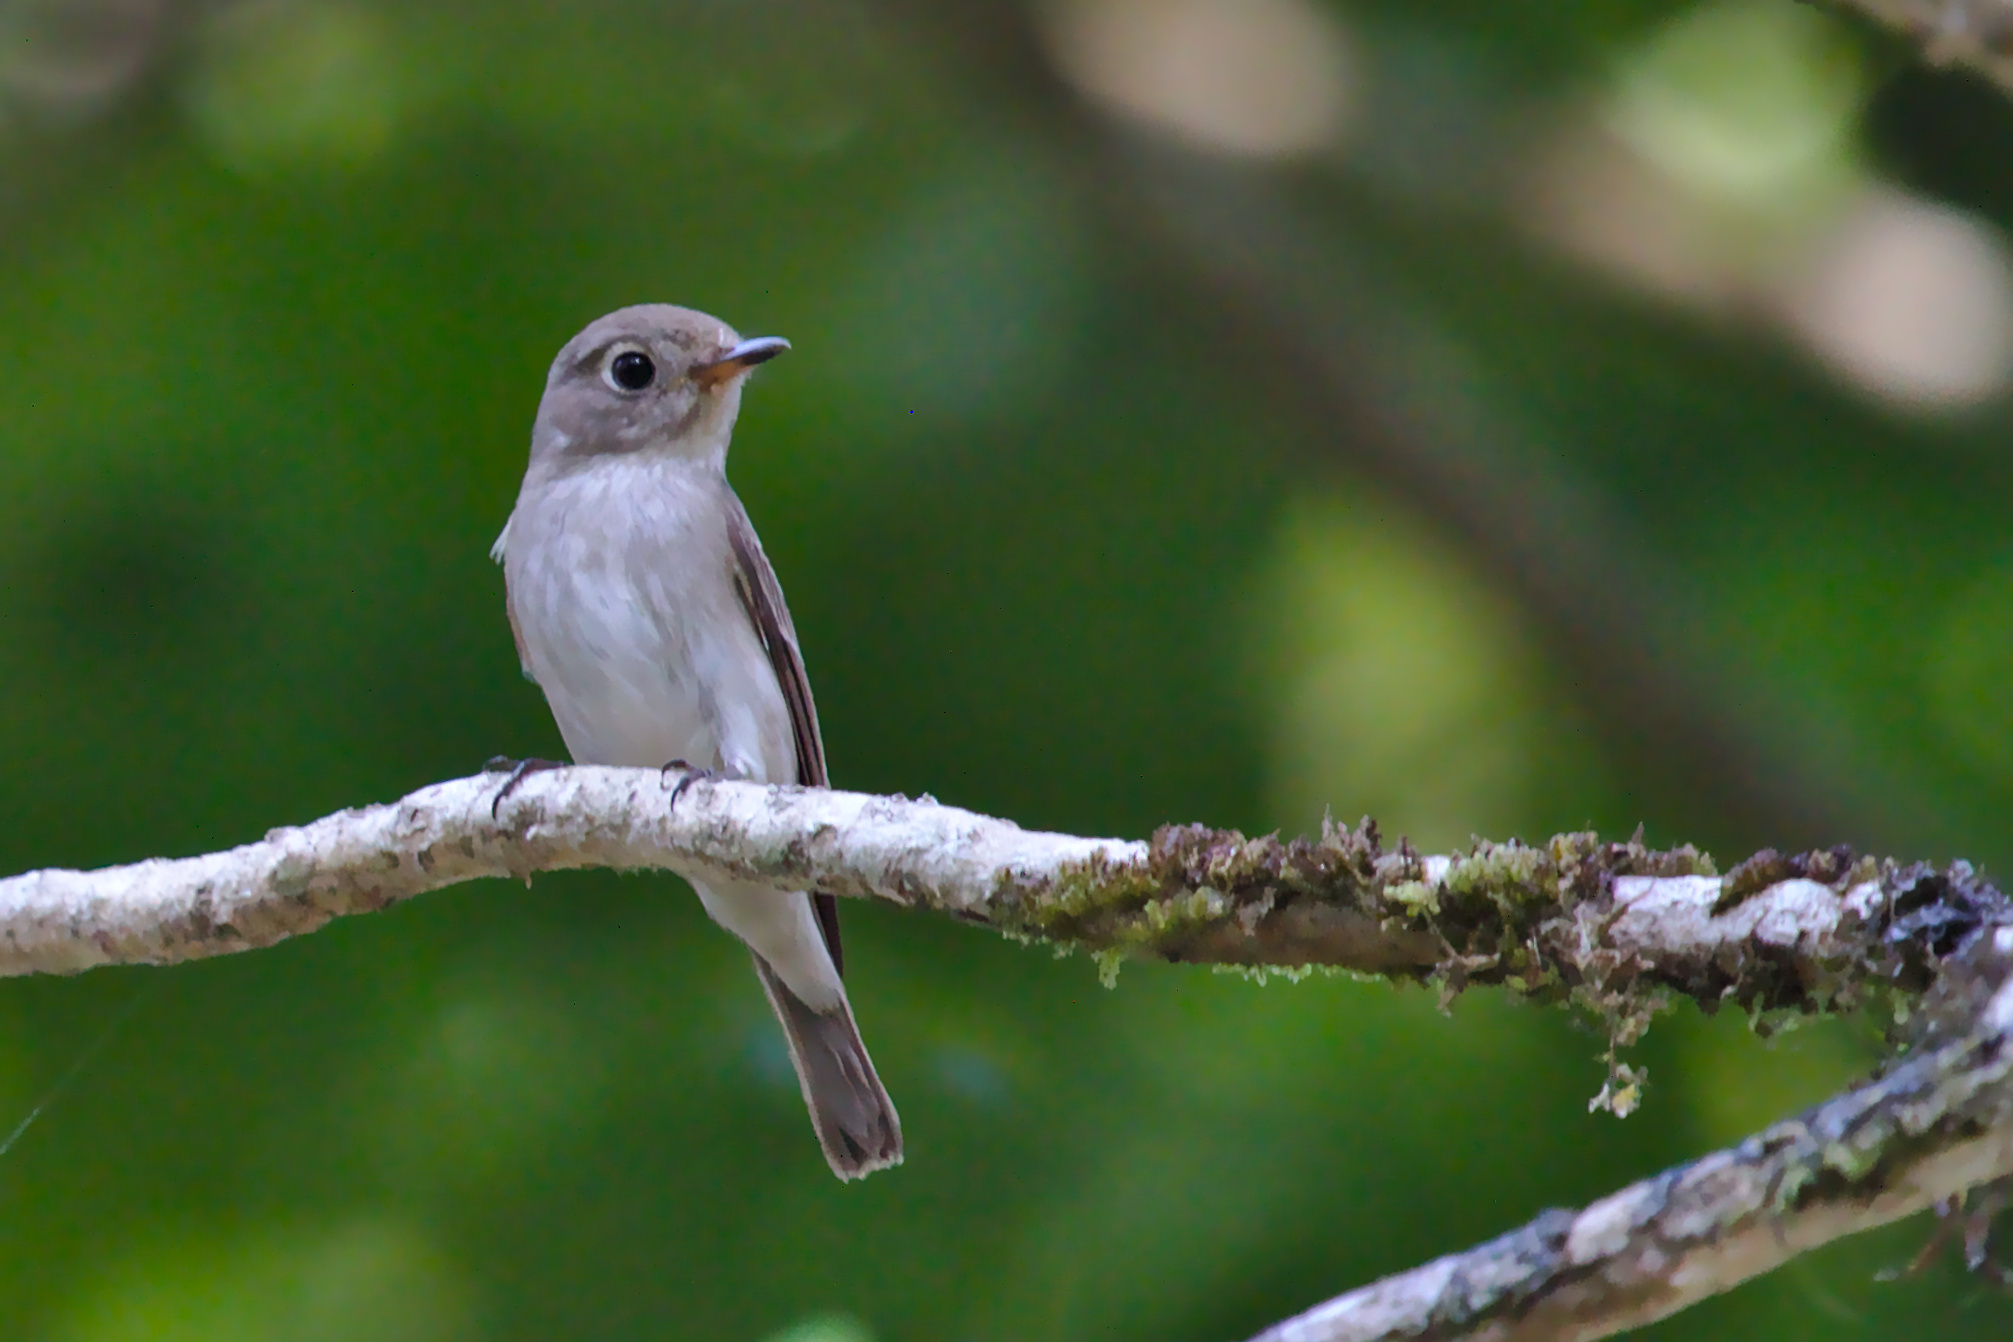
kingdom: Animalia
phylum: Chordata
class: Aves
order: Passeriformes
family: Muscicapidae
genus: Muscicapa
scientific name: Muscicapa latirostris
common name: Asian brown flycatcher
